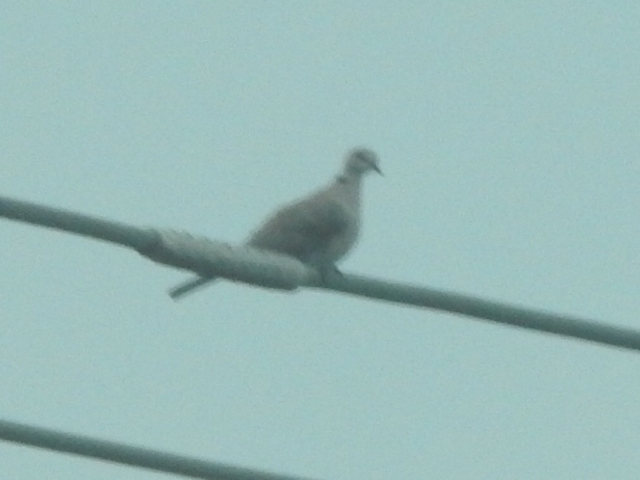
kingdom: Animalia
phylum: Chordata
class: Aves
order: Columbiformes
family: Columbidae
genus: Streptopelia
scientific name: Streptopelia decaocto
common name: Eurasian collared dove
